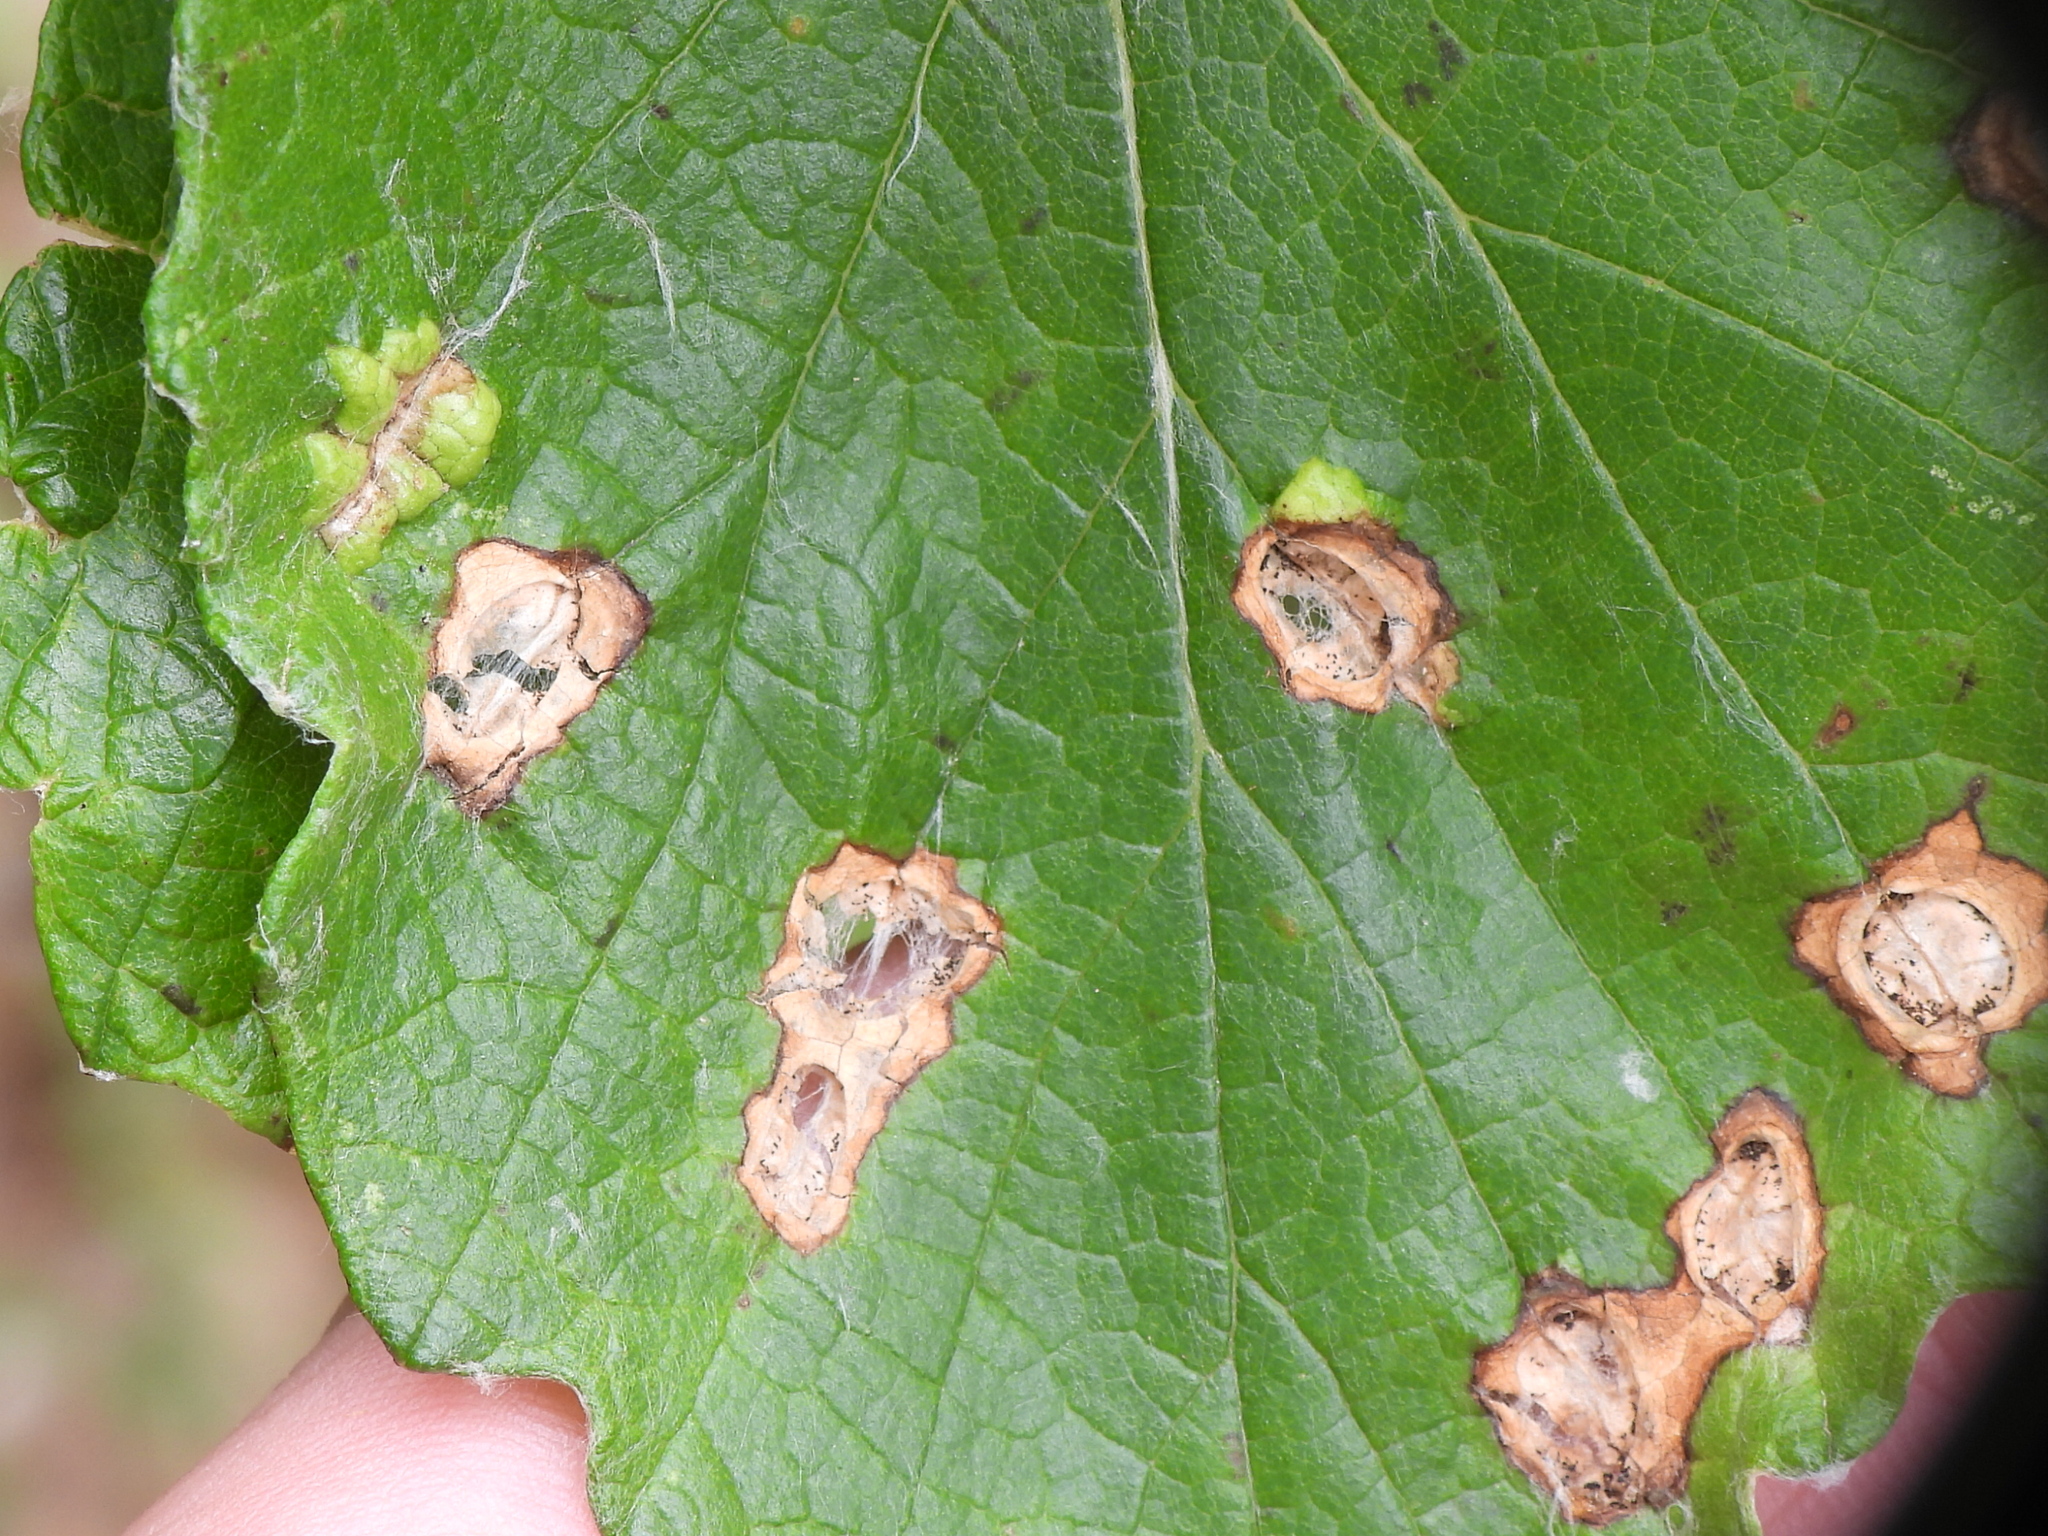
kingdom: Animalia
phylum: Arthropoda
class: Insecta
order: Lepidoptera
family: Heliozelidae
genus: Heliozela
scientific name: Heliozela aesella
